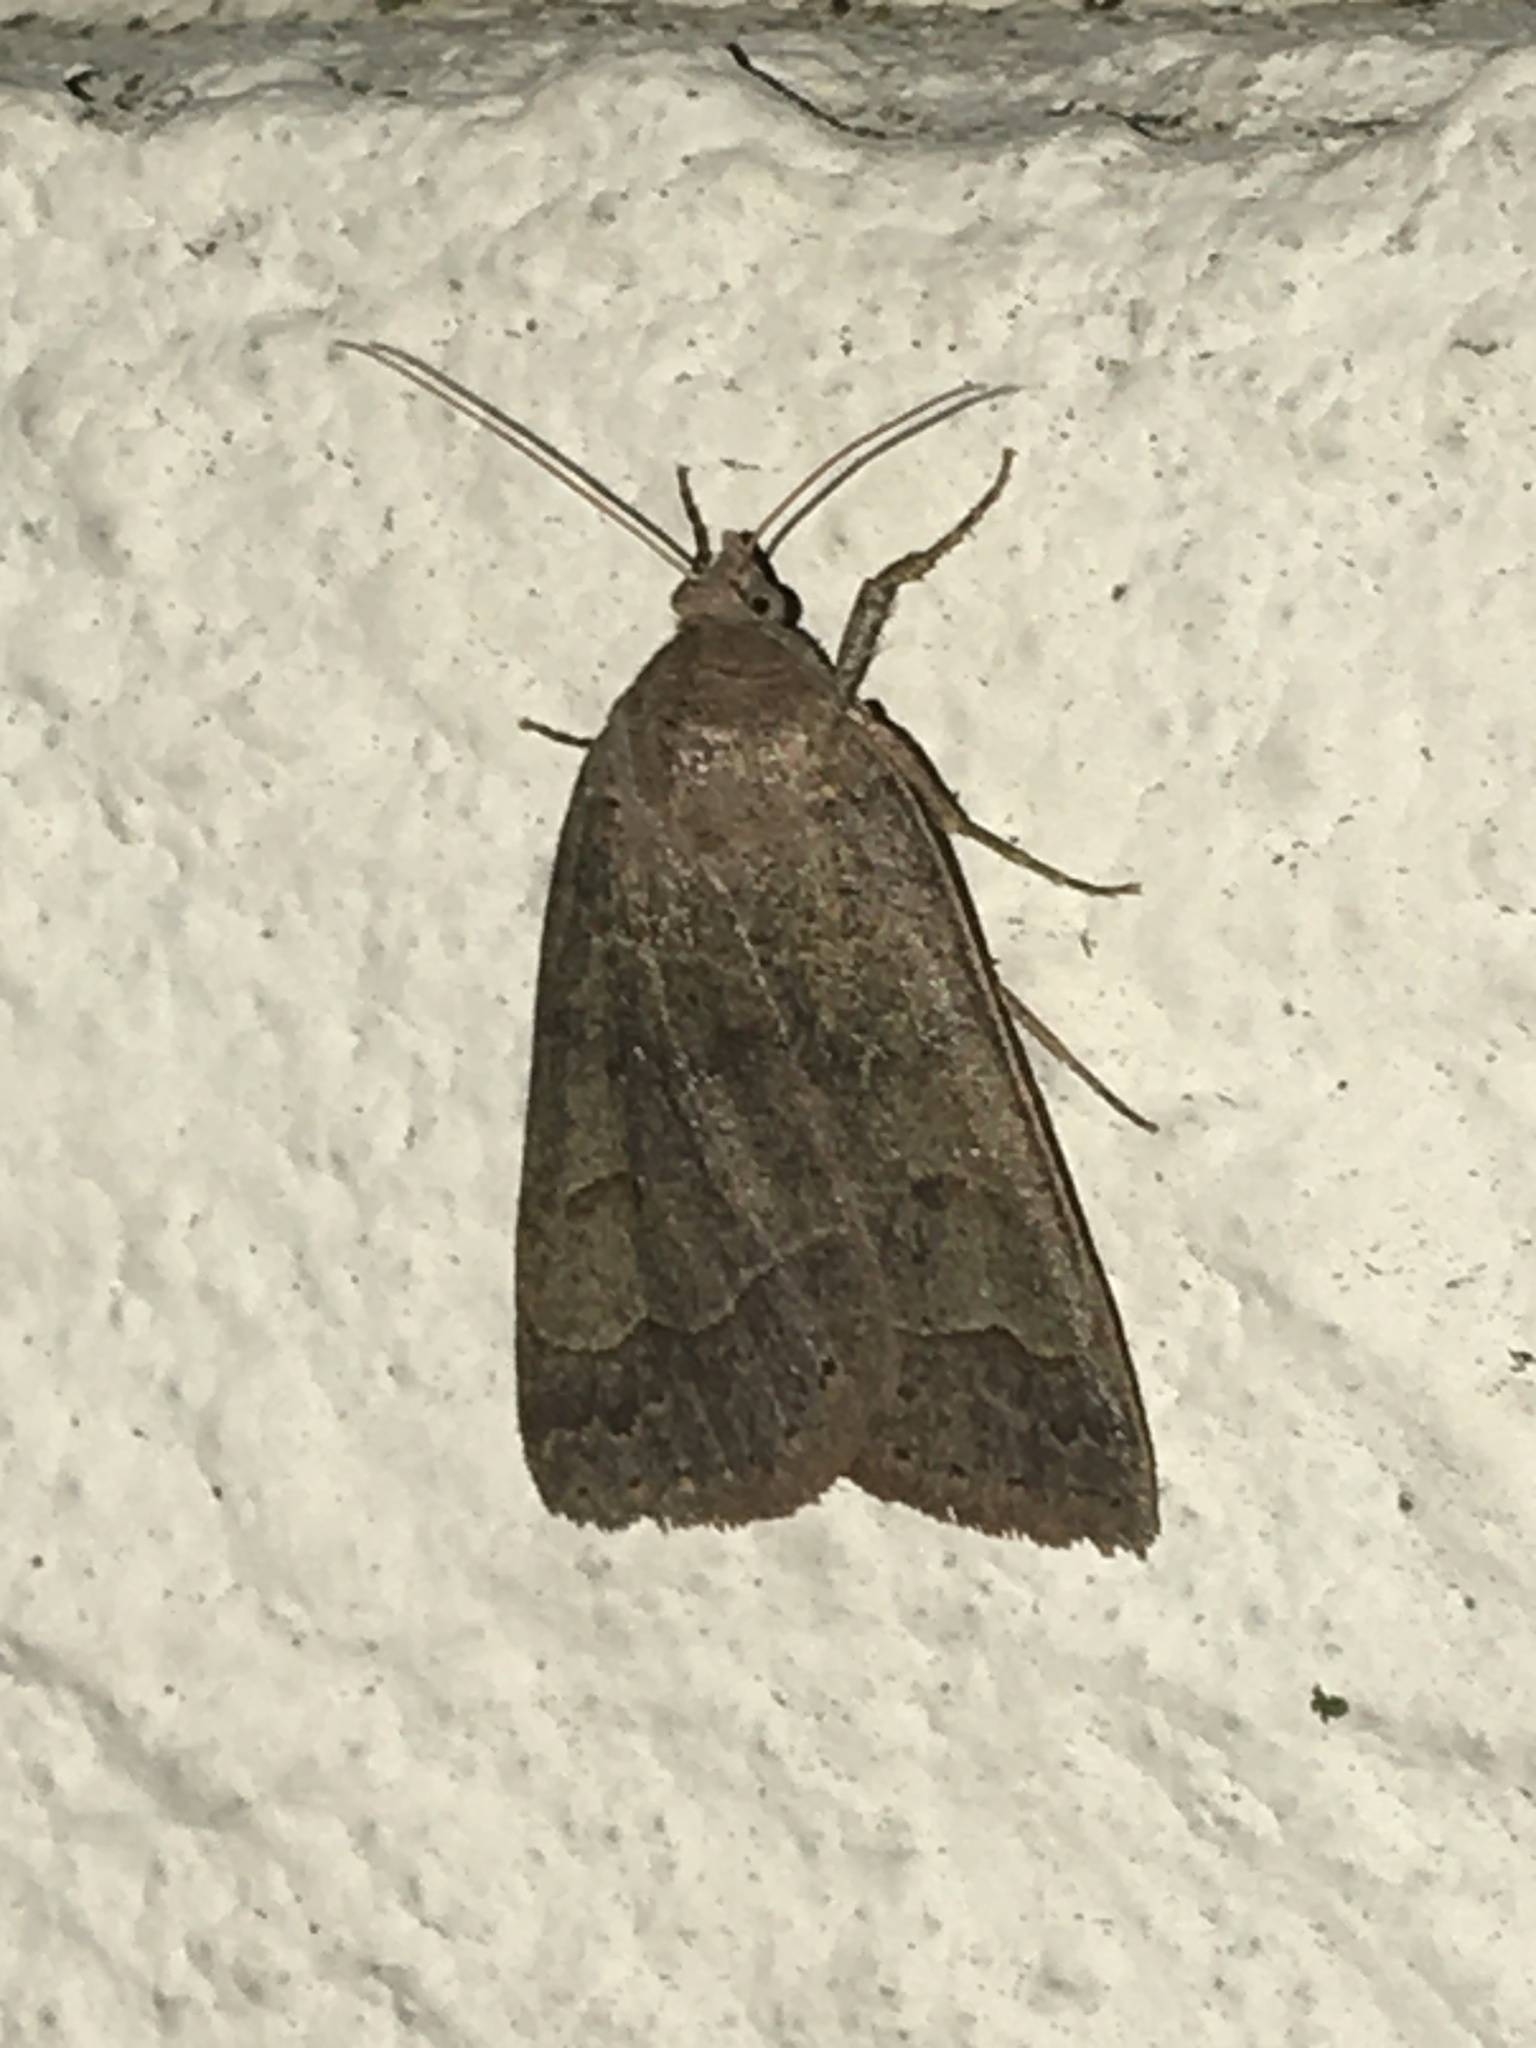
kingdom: Animalia
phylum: Arthropoda
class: Insecta
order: Lepidoptera
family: Erebidae
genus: Phoberia
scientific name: Phoberia atomaris
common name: Common oak moth
